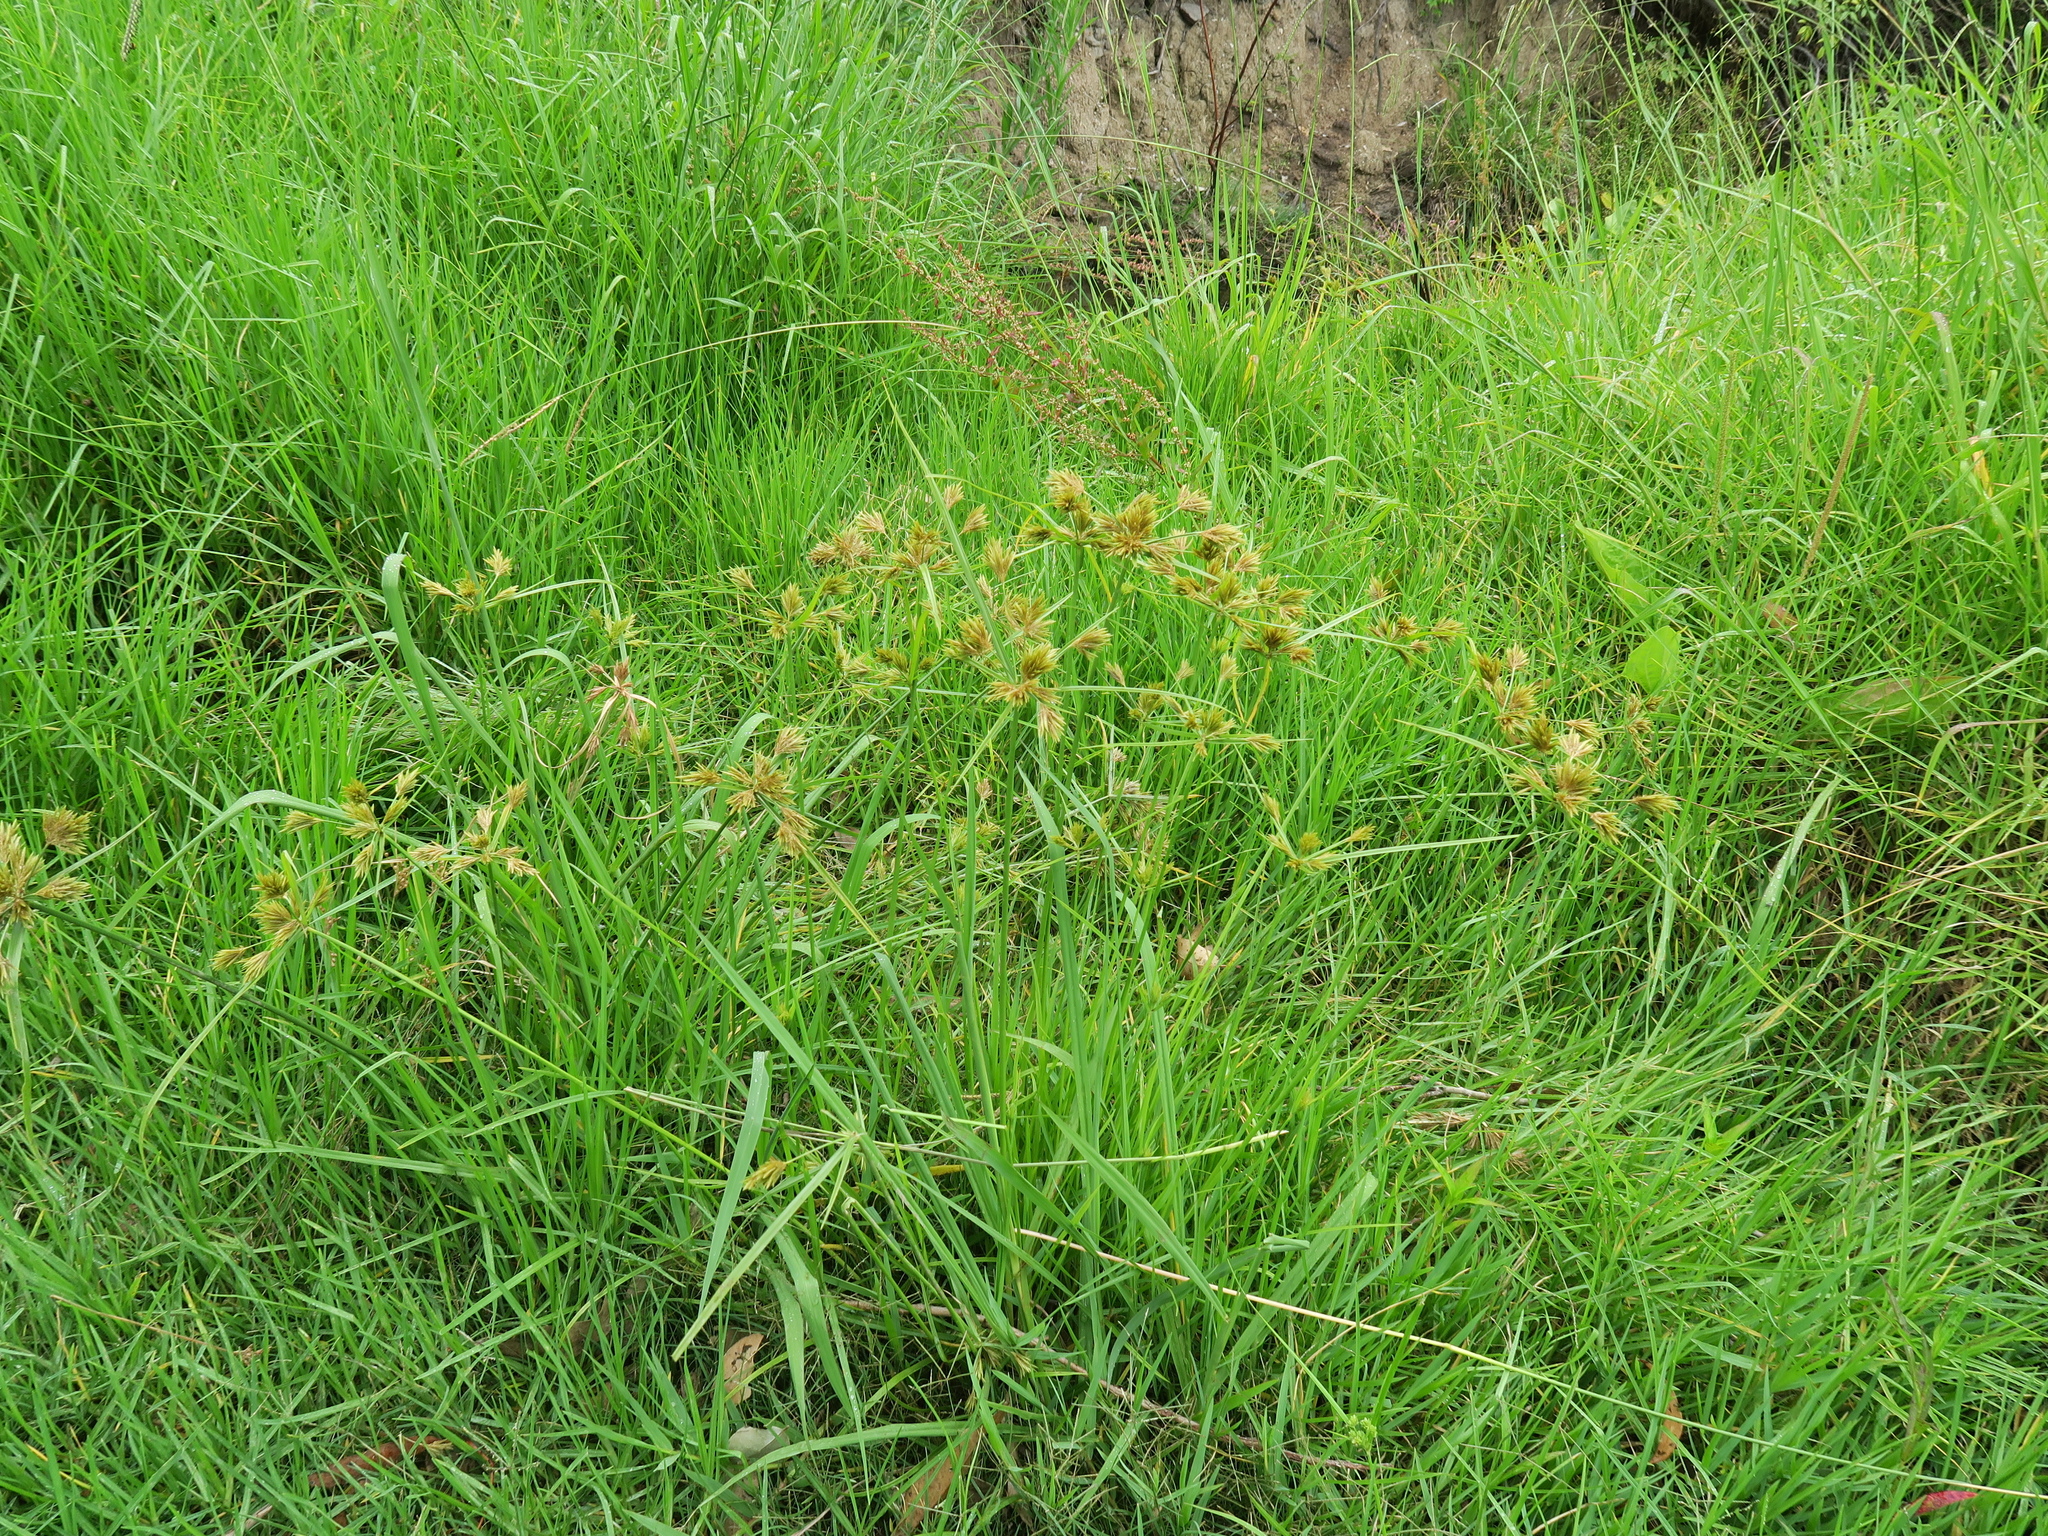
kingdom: Plantae
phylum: Tracheophyta
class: Liliopsida
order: Poales
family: Cyperaceae
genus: Cyperus
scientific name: Cyperus polystachyos
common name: Bunchy flat sedge
